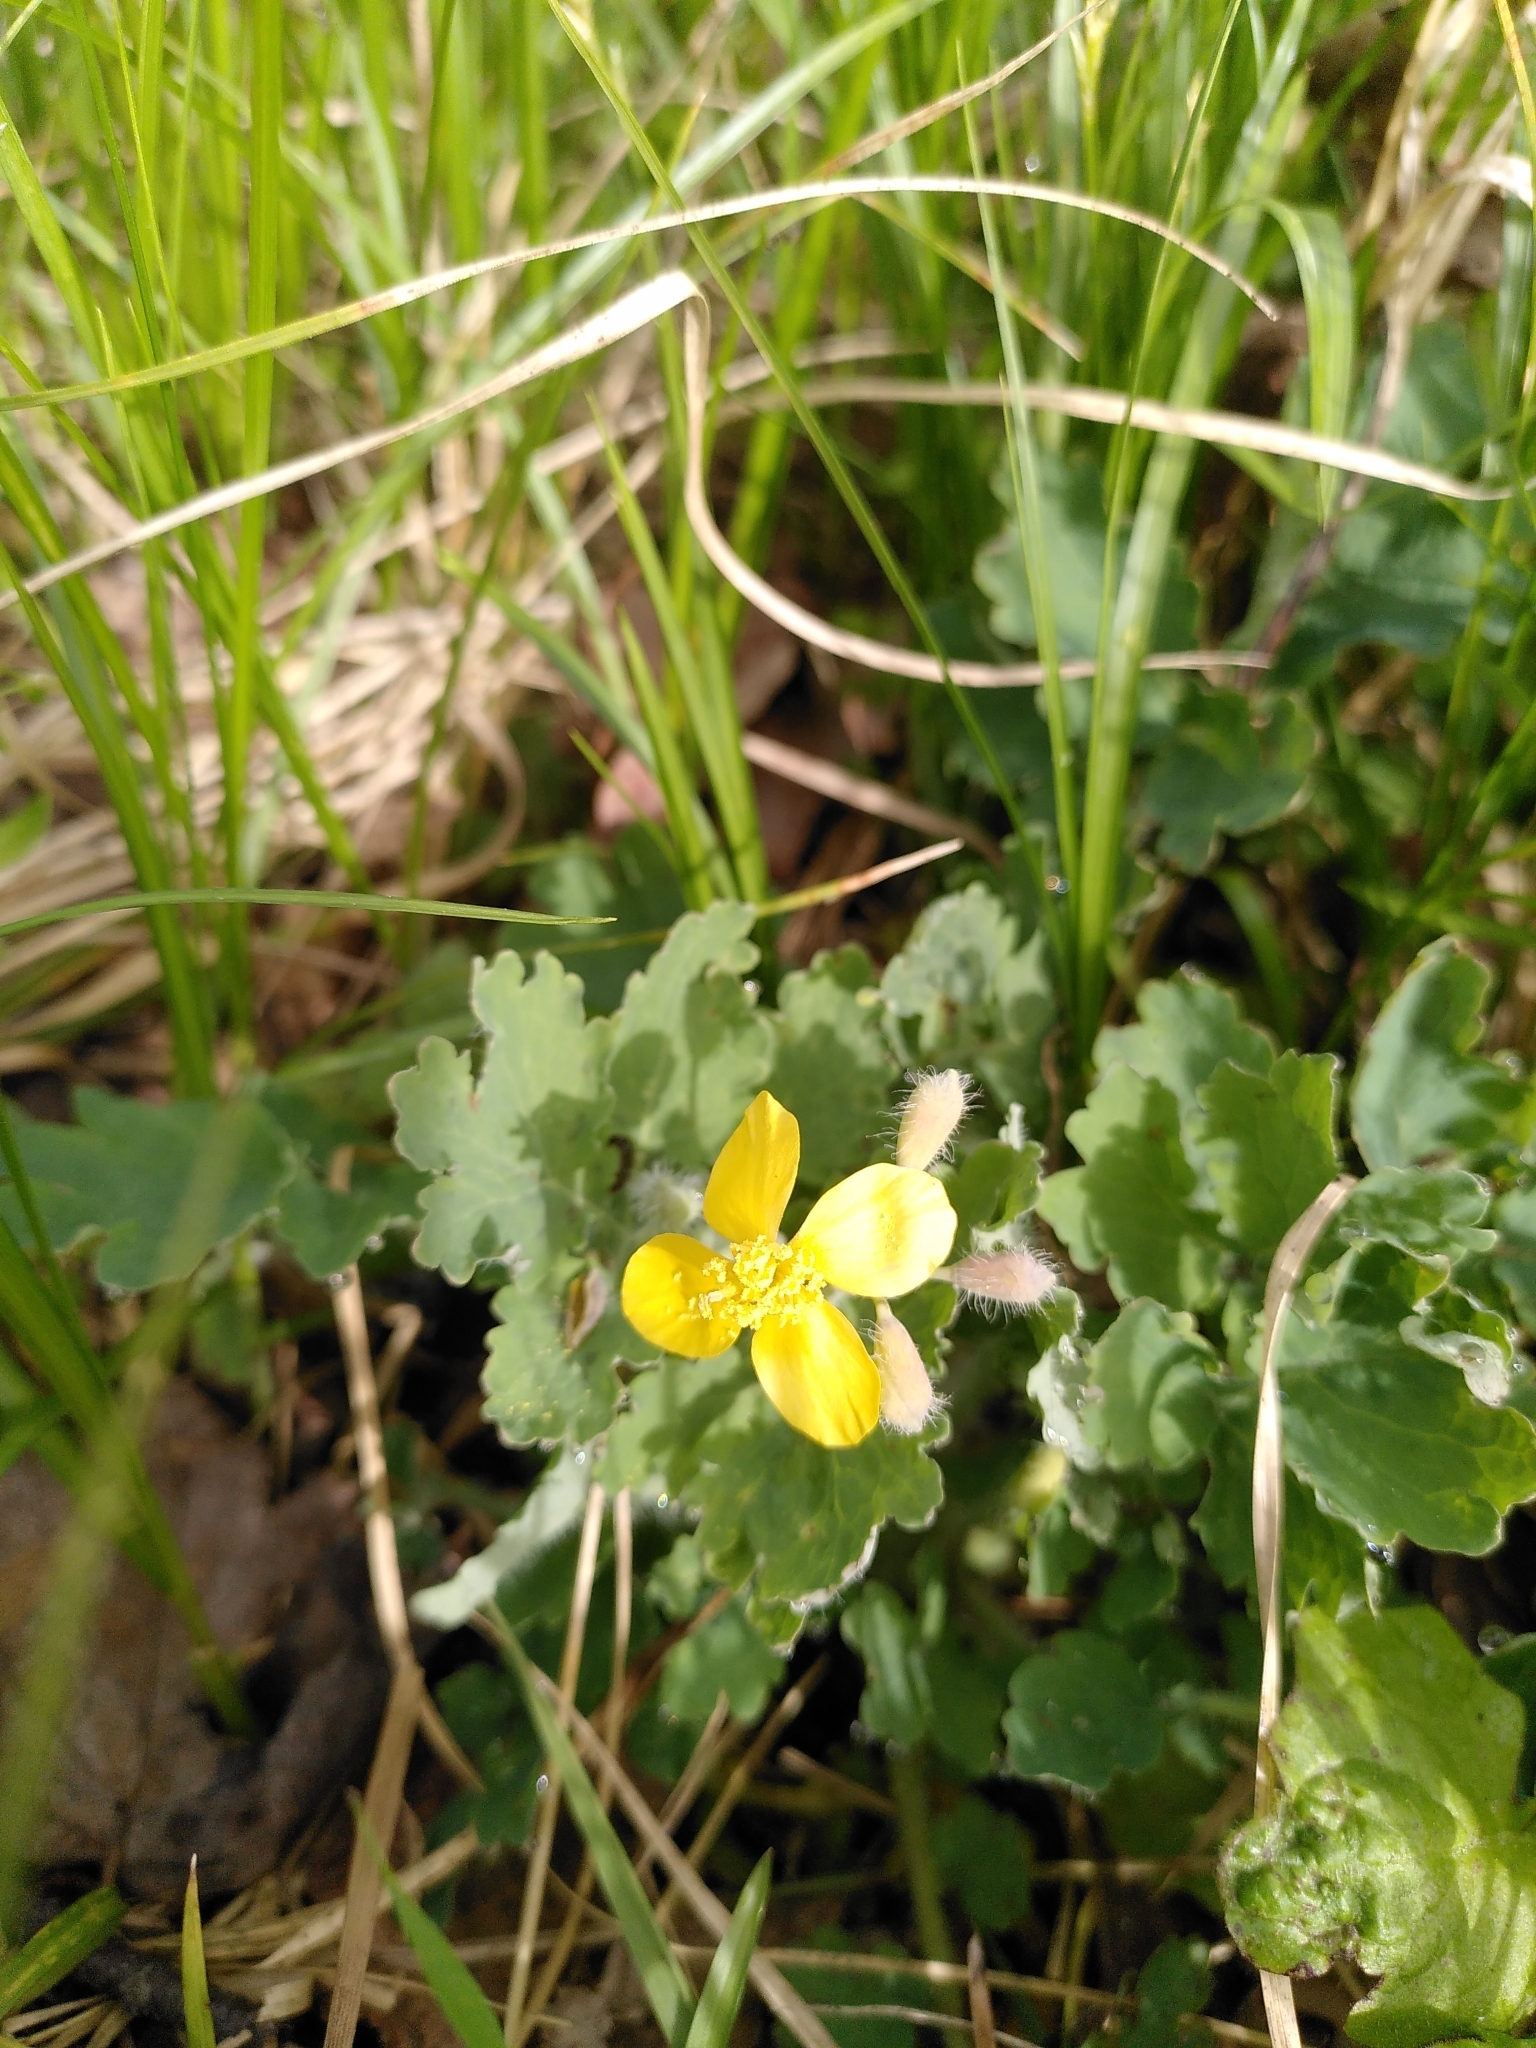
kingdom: Plantae
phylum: Tracheophyta
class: Magnoliopsida
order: Ranunculales
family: Papaveraceae
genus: Chelidonium
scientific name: Chelidonium majus
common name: Greater celandine
